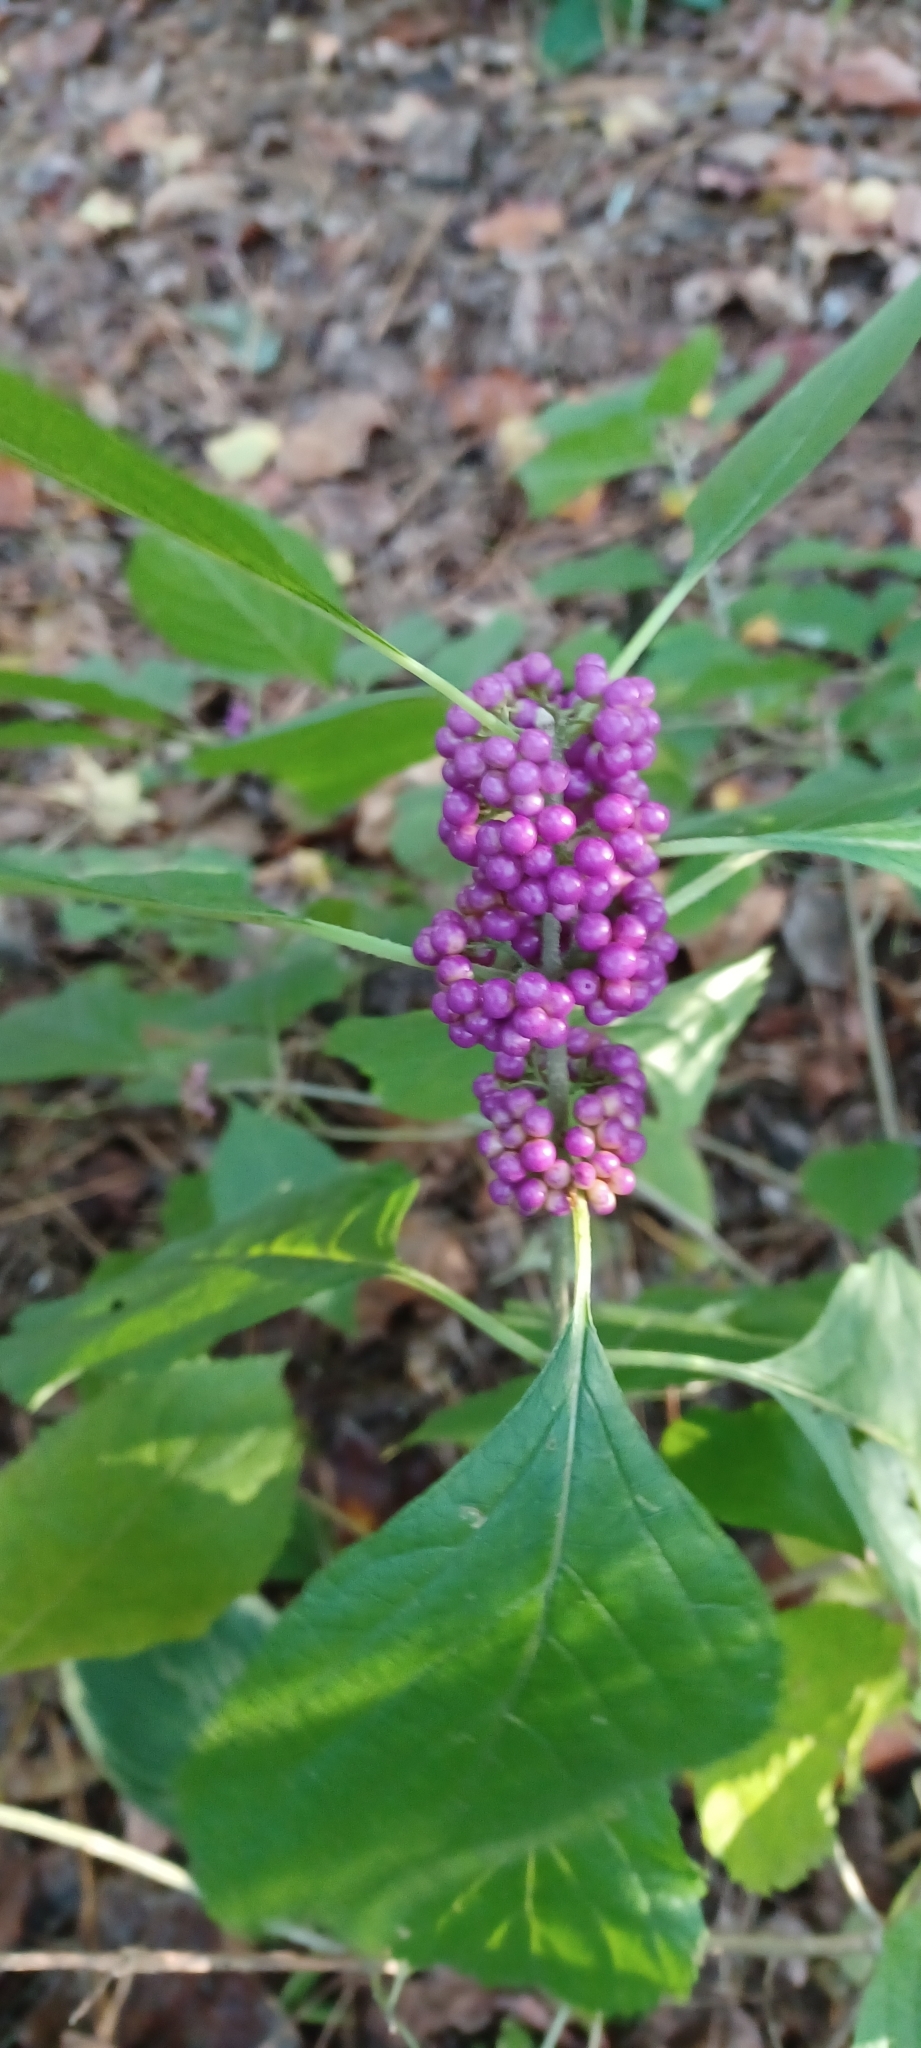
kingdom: Plantae
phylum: Tracheophyta
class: Magnoliopsida
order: Lamiales
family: Lamiaceae
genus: Callicarpa
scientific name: Callicarpa americana
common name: American beautyberry
